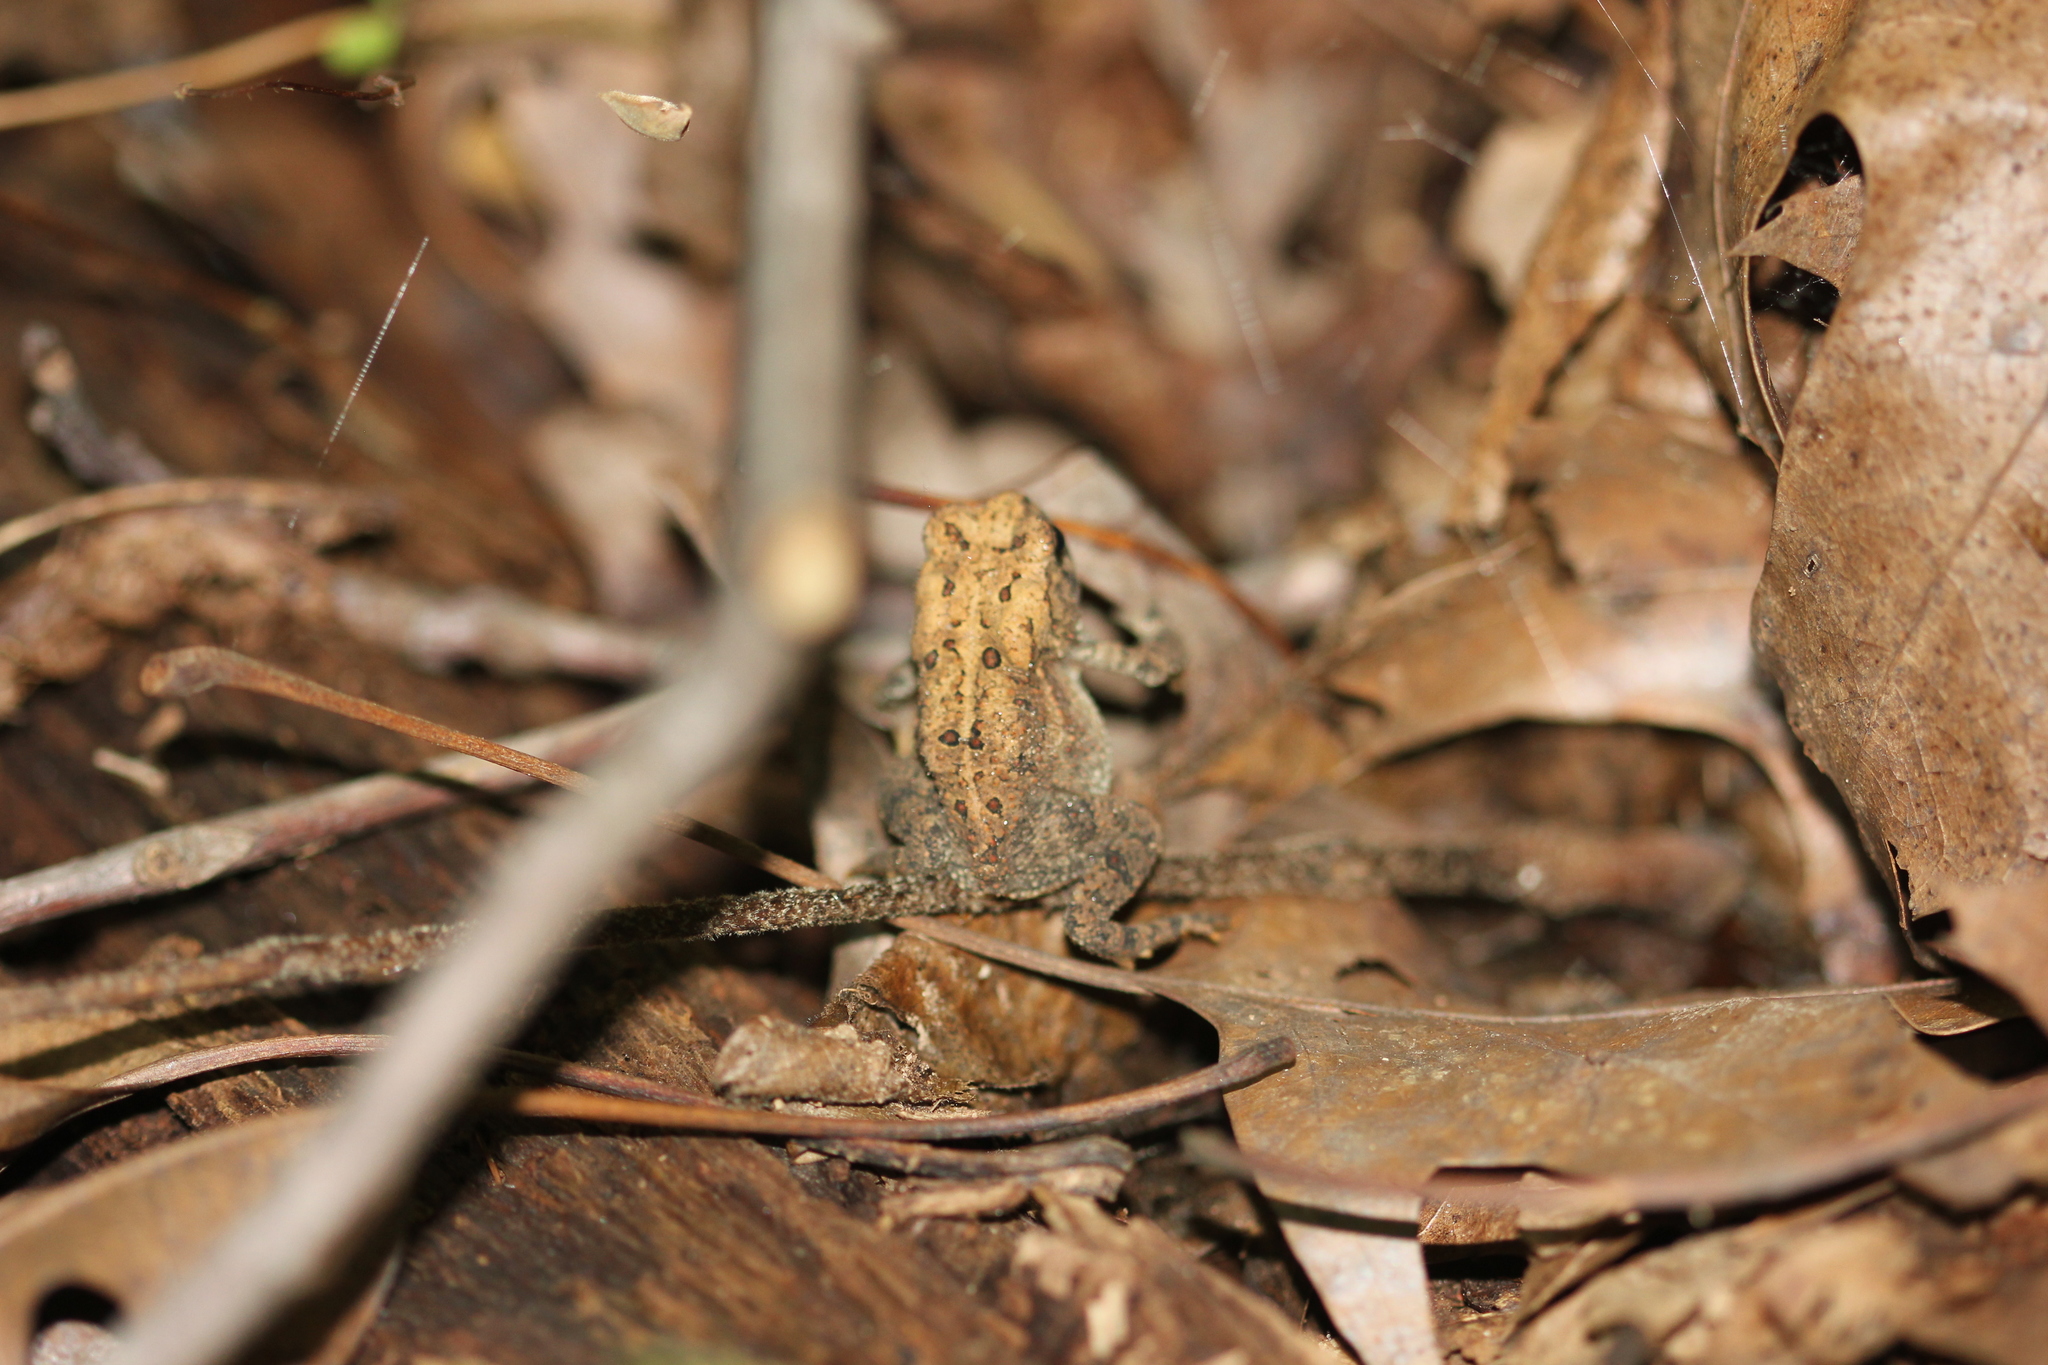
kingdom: Animalia
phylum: Chordata
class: Amphibia
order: Anura
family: Bufonidae
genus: Anaxyrus
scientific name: Anaxyrus americanus
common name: American toad
